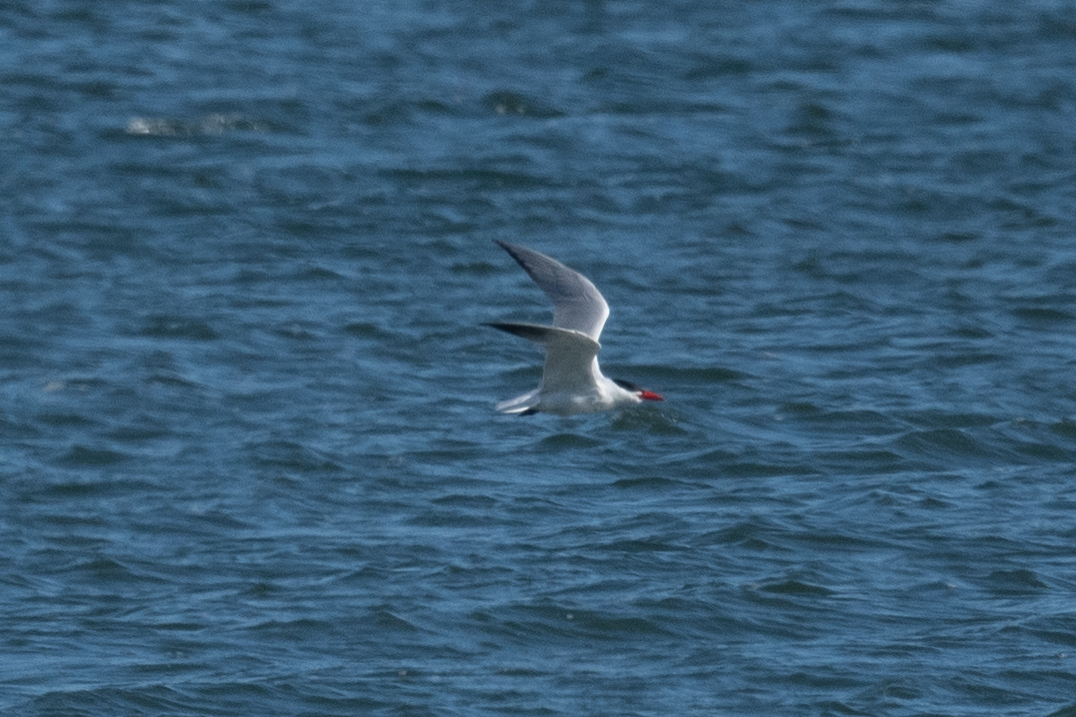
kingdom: Animalia
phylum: Chordata
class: Aves
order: Charadriiformes
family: Laridae
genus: Hydroprogne
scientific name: Hydroprogne caspia
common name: Caspian tern
